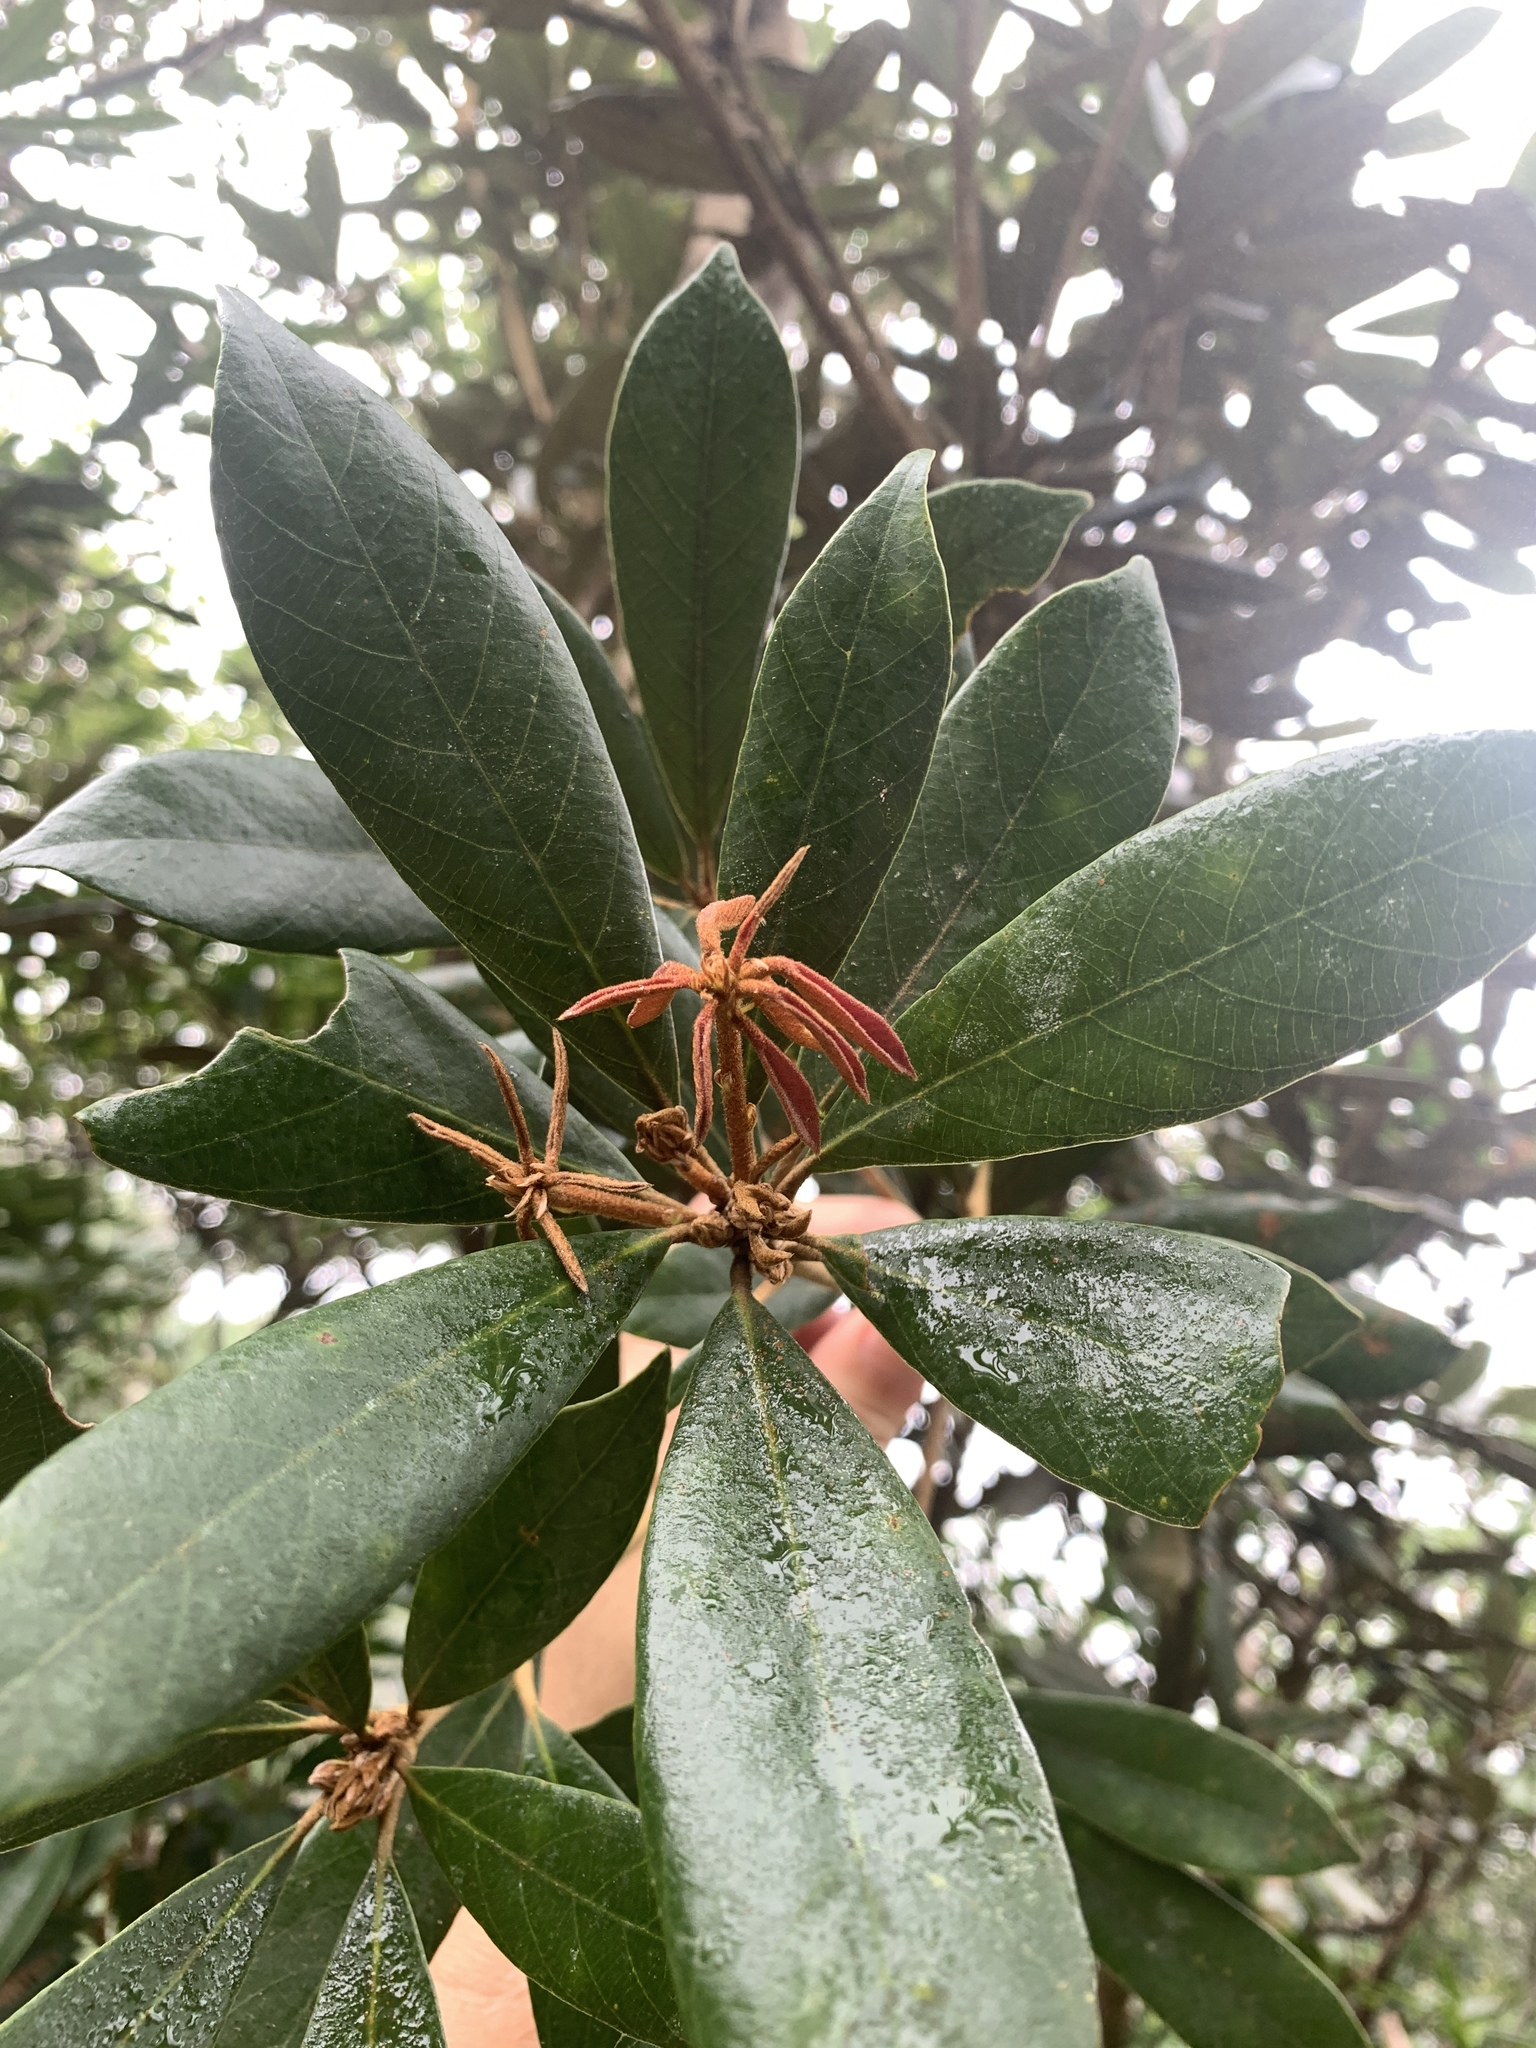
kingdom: Plantae
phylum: Tracheophyta
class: Magnoliopsida
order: Fagales
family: Fagaceae
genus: Quercus
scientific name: Quercus championii
